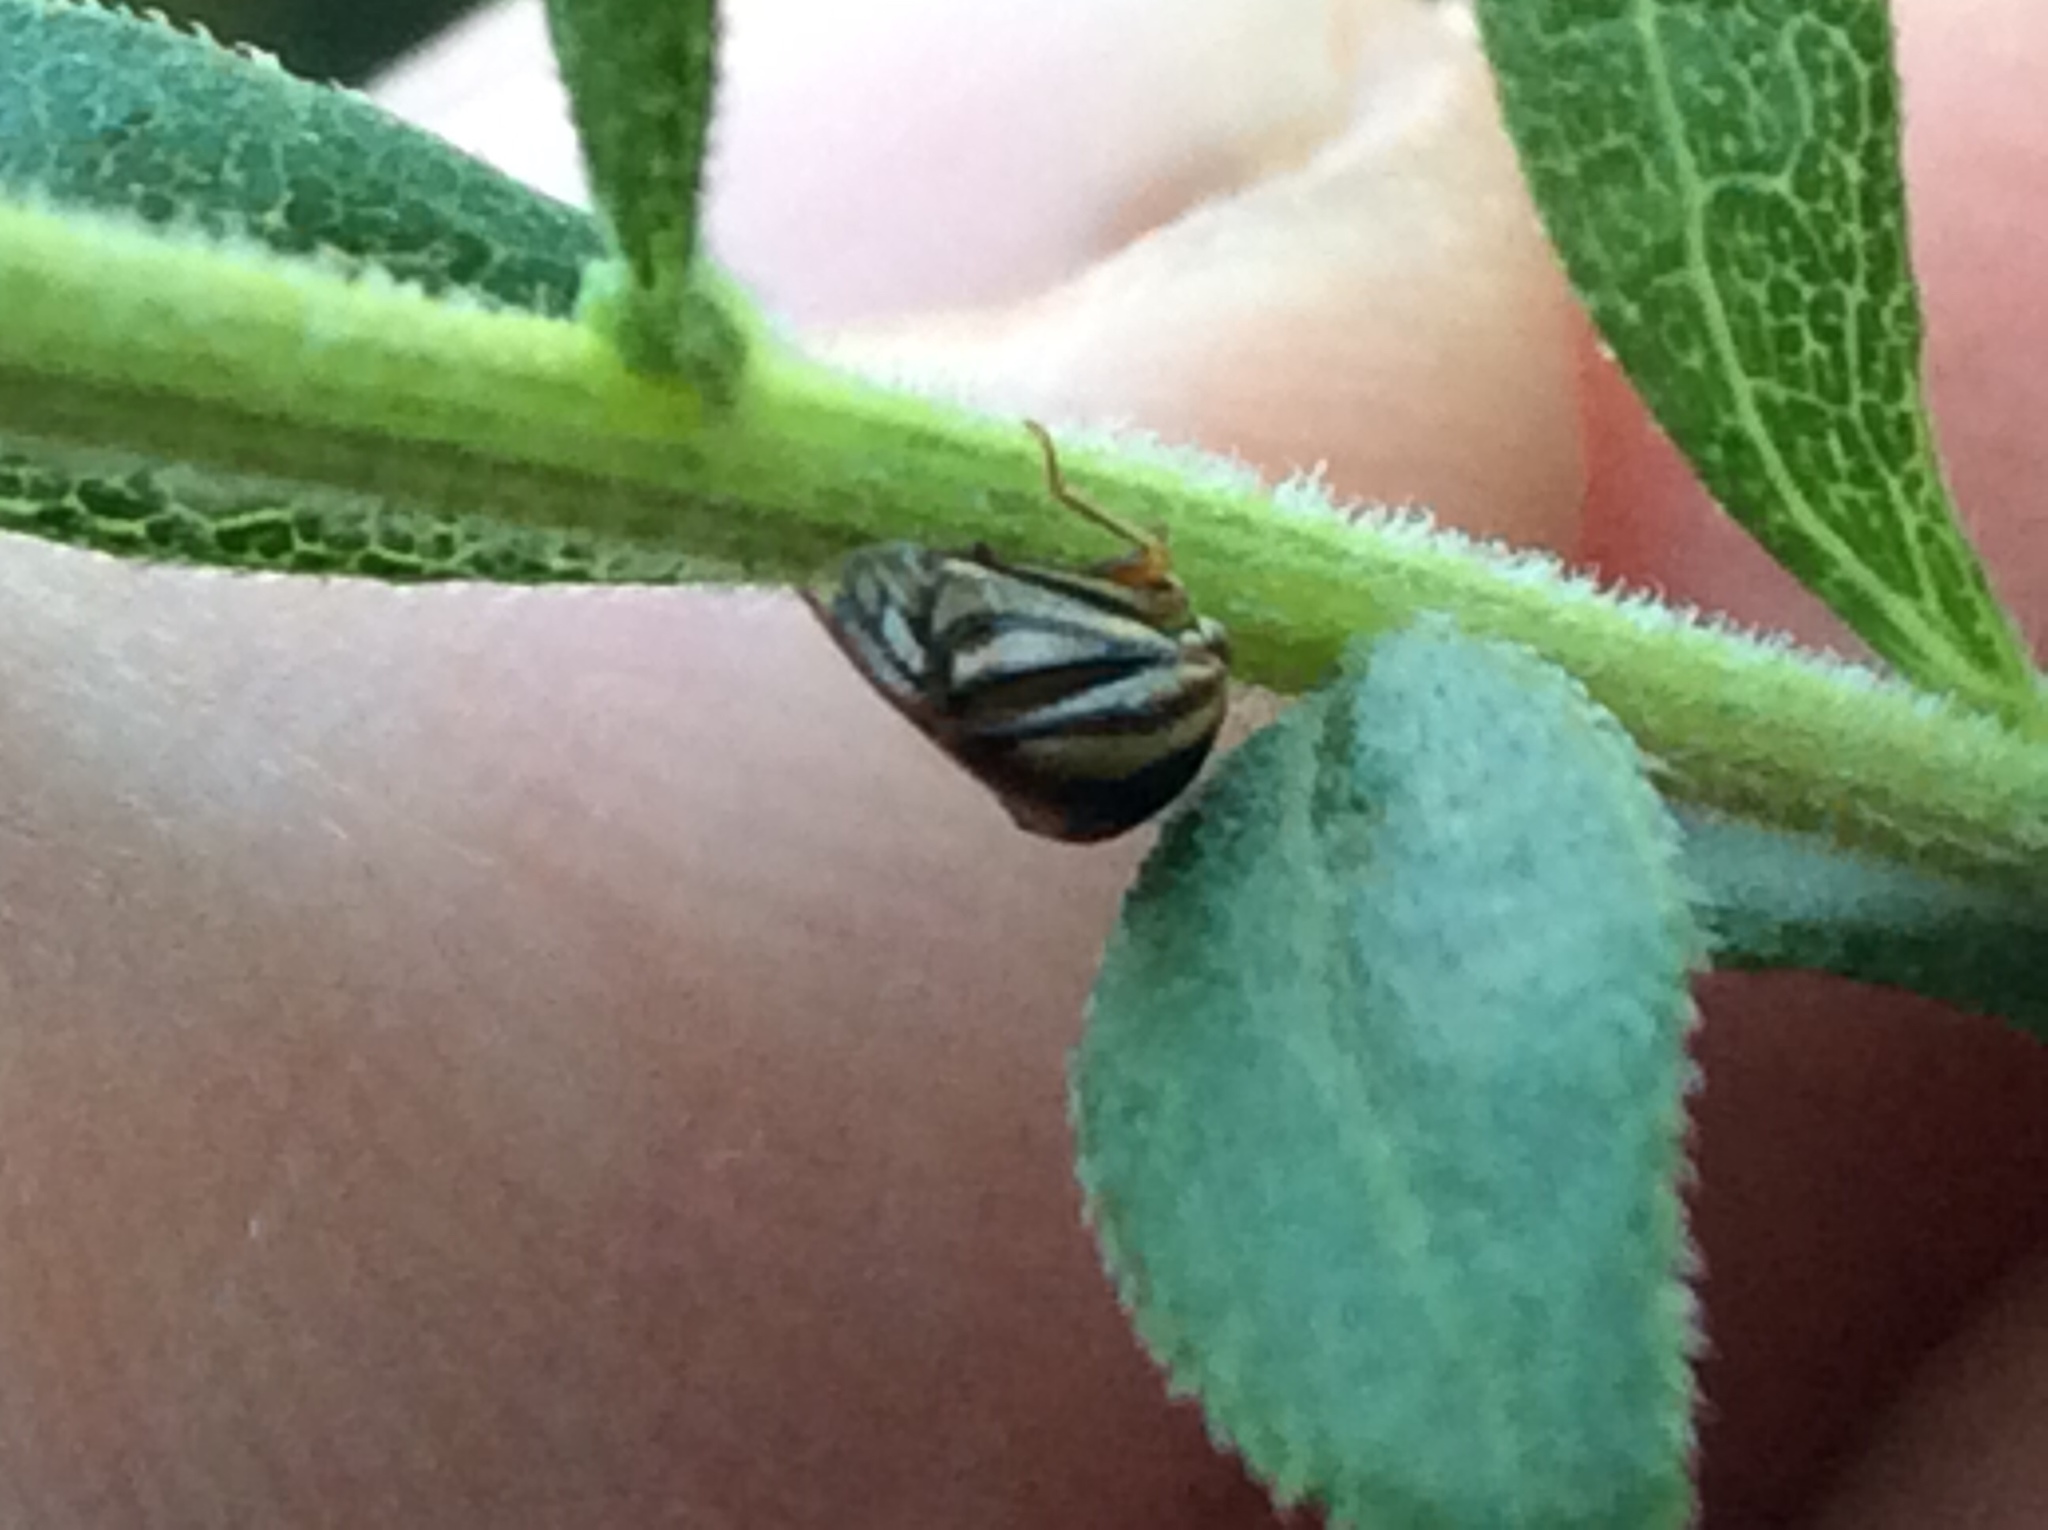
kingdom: Animalia
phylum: Arthropoda
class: Insecta
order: Hemiptera
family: Membracidae
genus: Acutalis
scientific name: Acutalis tartarea
